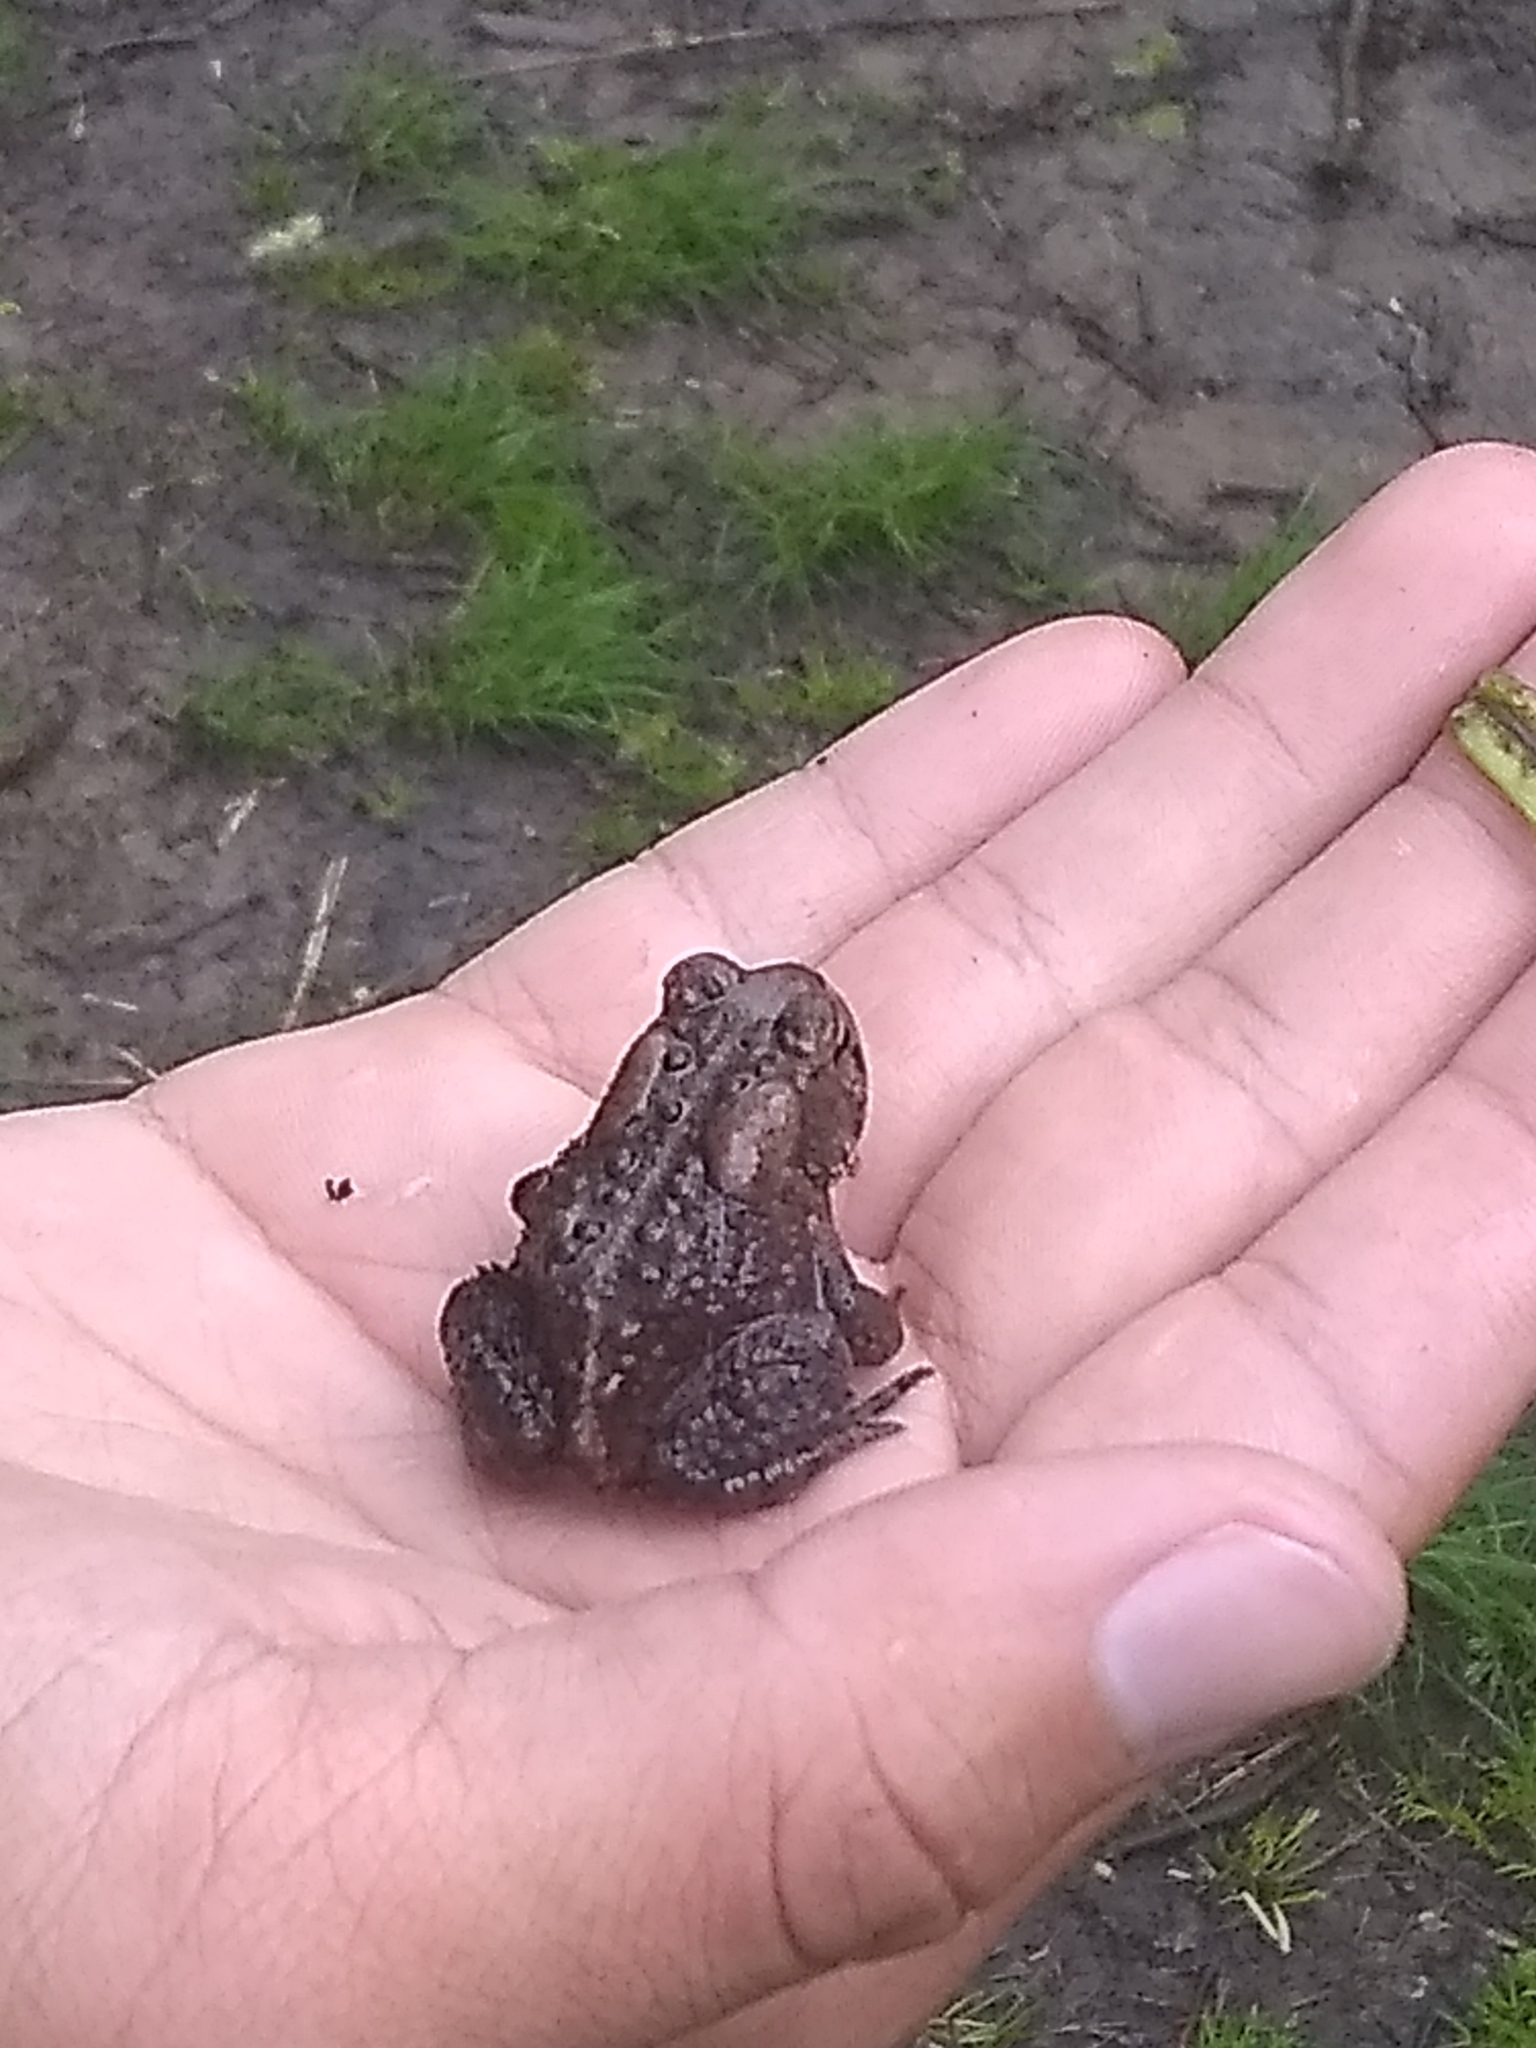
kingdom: Animalia
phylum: Chordata
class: Amphibia
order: Anura
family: Bufonidae
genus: Anaxyrus
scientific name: Anaxyrus americanus
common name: American toad
